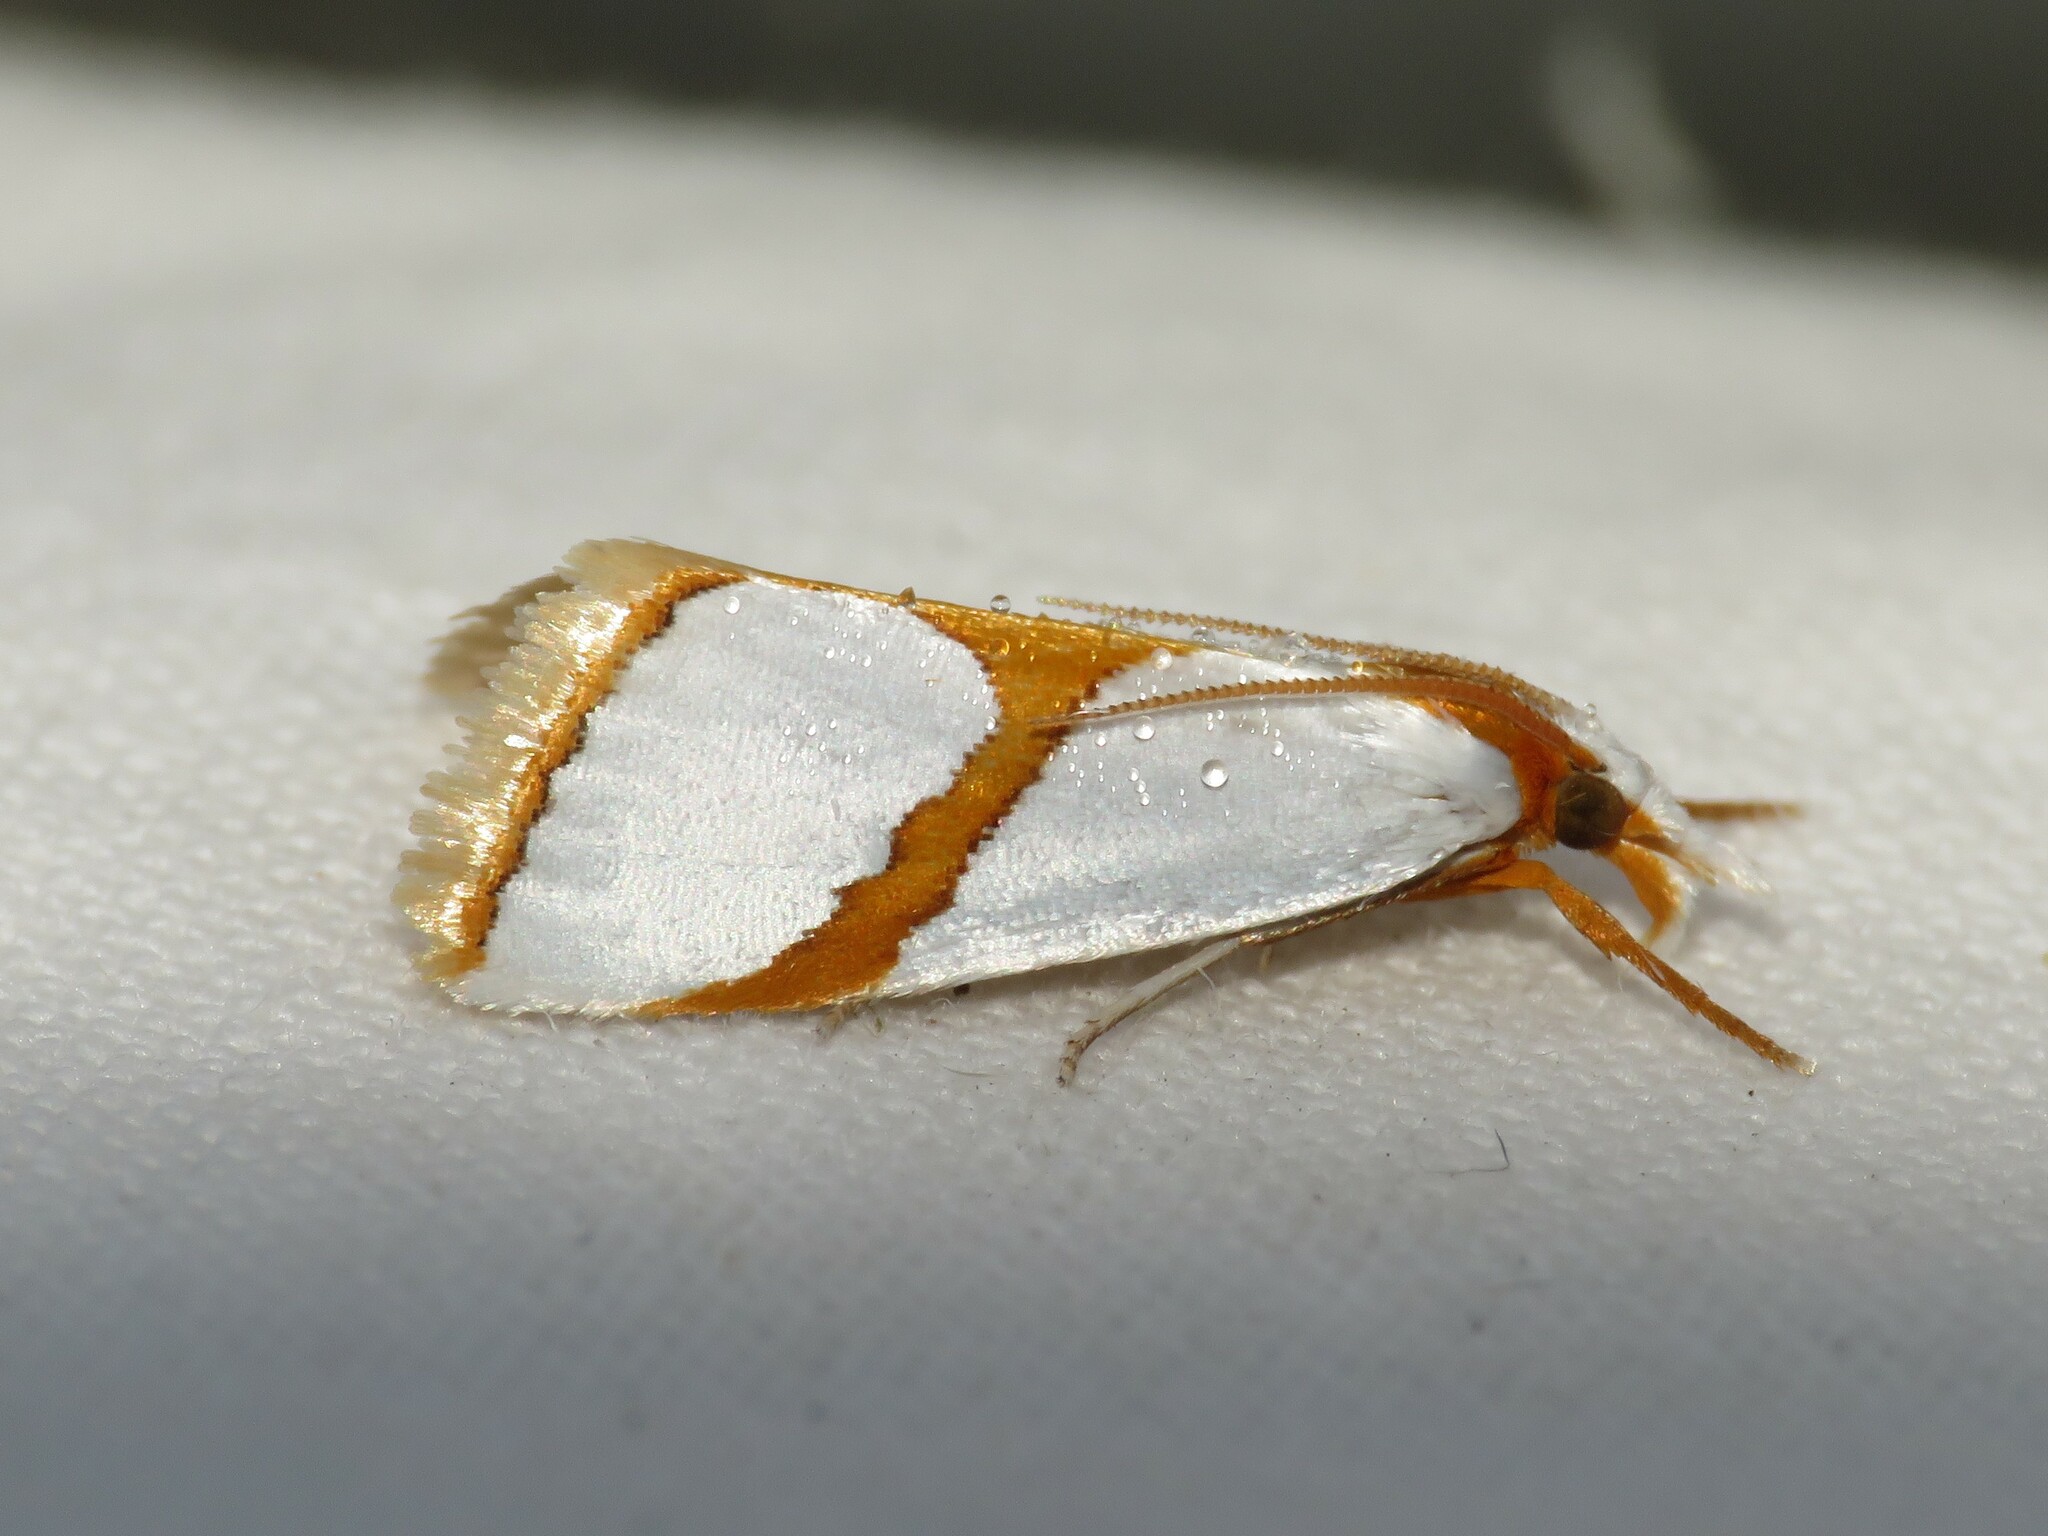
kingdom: Animalia
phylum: Arthropoda
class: Insecta
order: Lepidoptera
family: Crambidae
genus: Argyria
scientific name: Argyria auratella
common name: Curve-lined argyria moth
